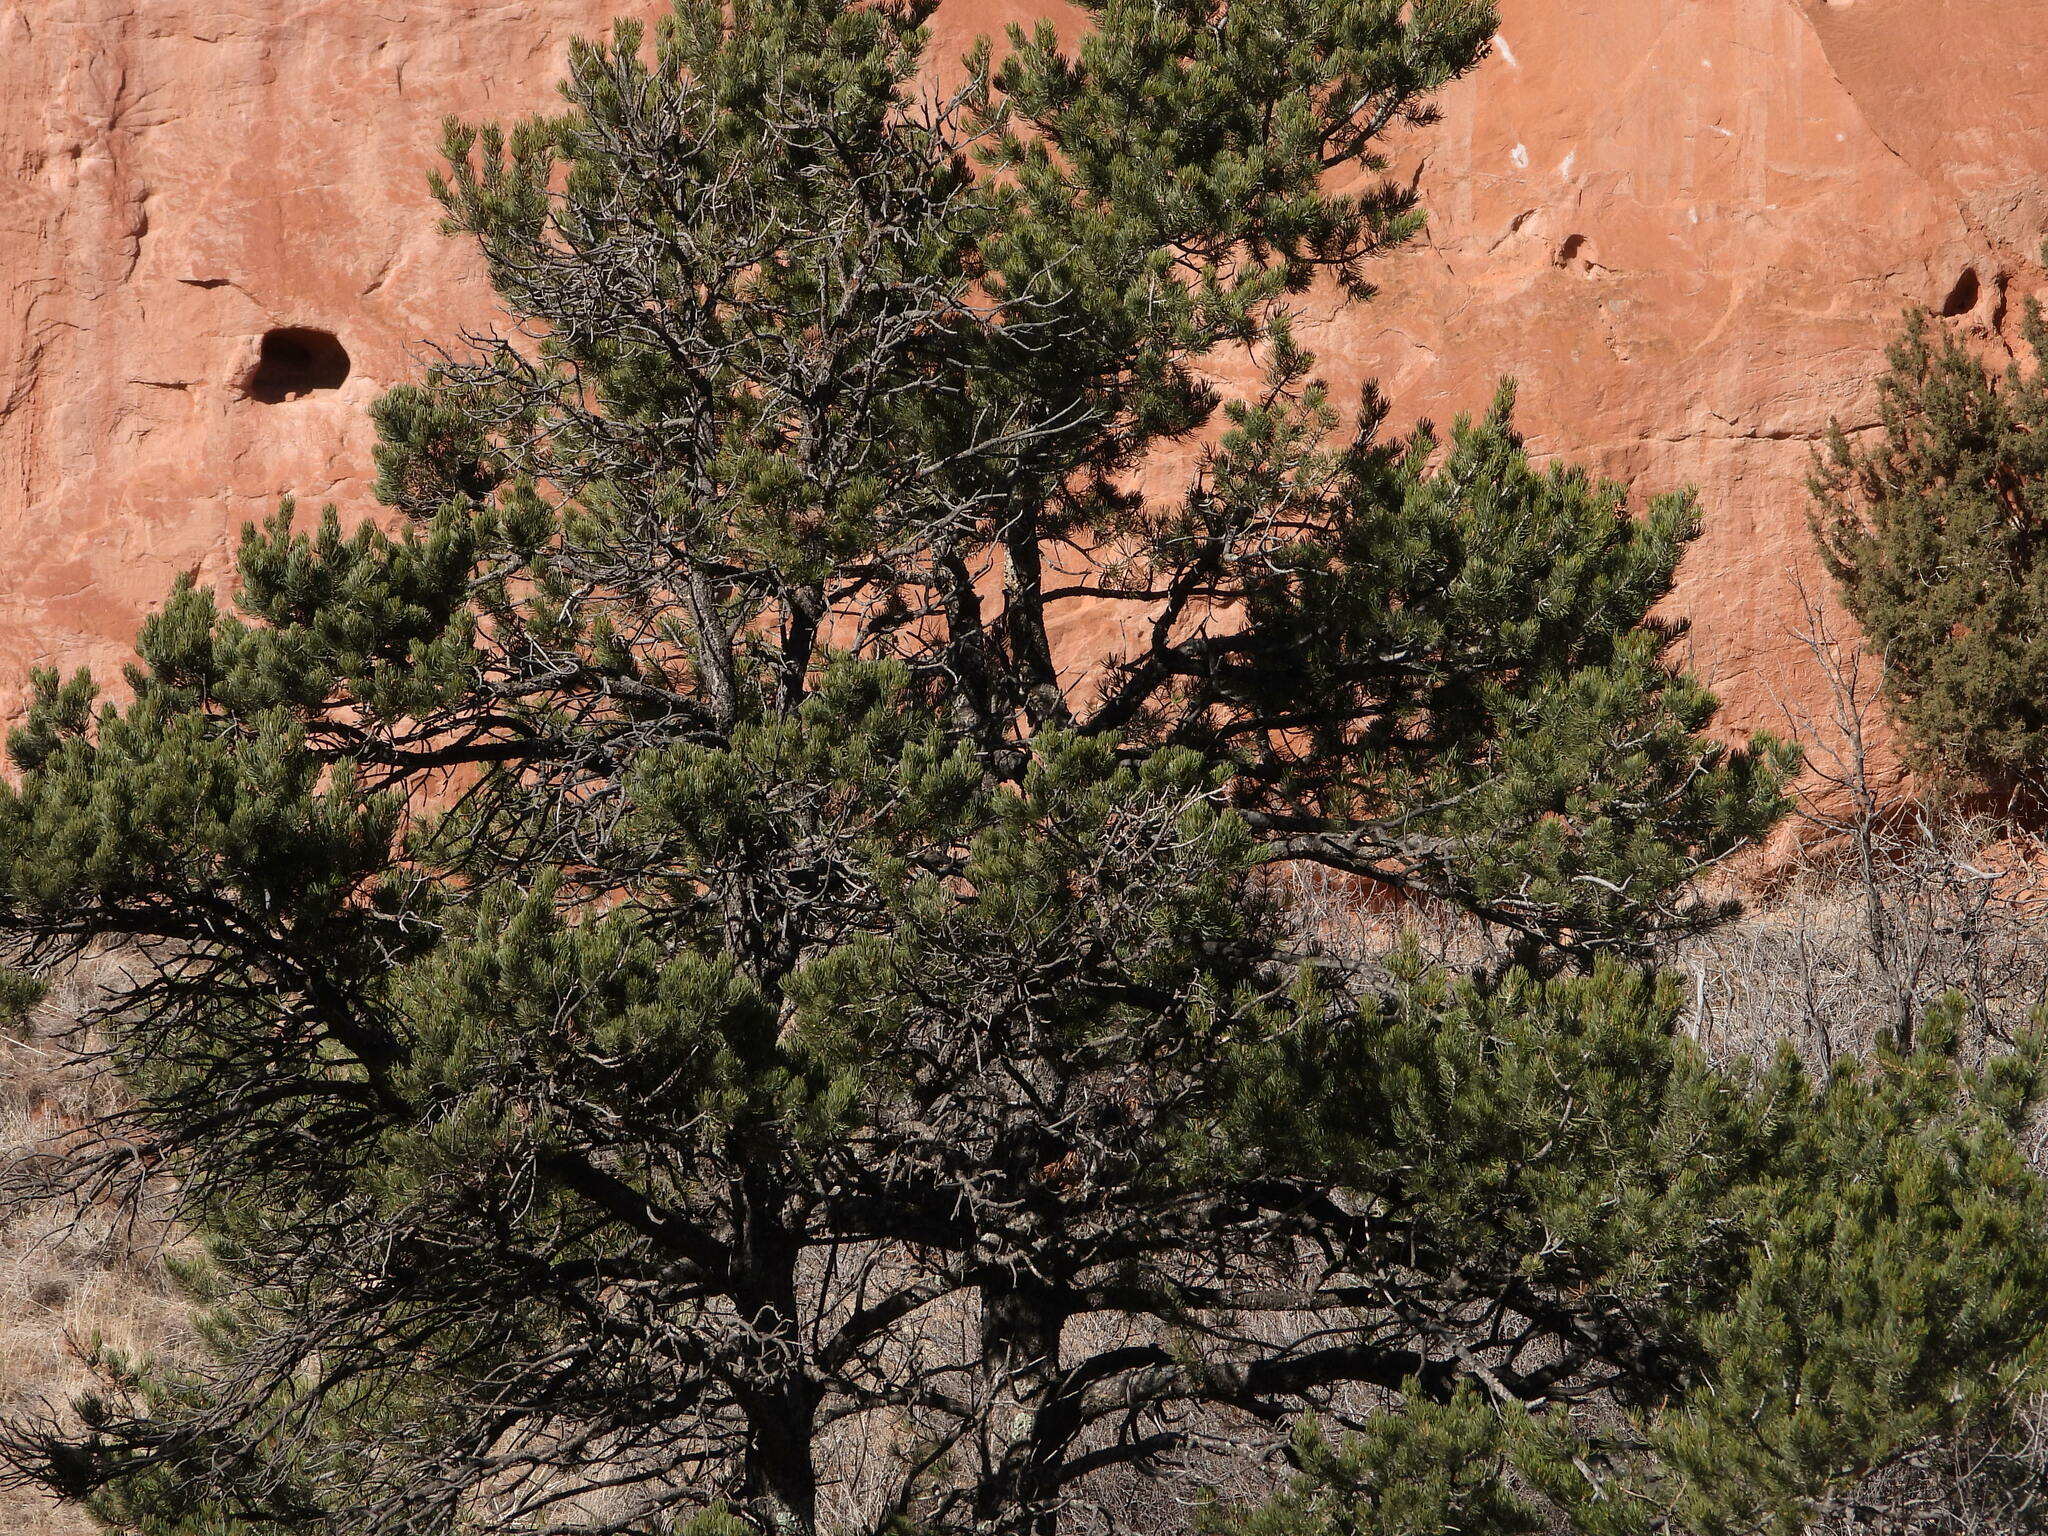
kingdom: Plantae
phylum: Tracheophyta
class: Pinopsida
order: Pinales
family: Pinaceae
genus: Pinus
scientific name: Pinus edulis
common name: Colorado pinyon
